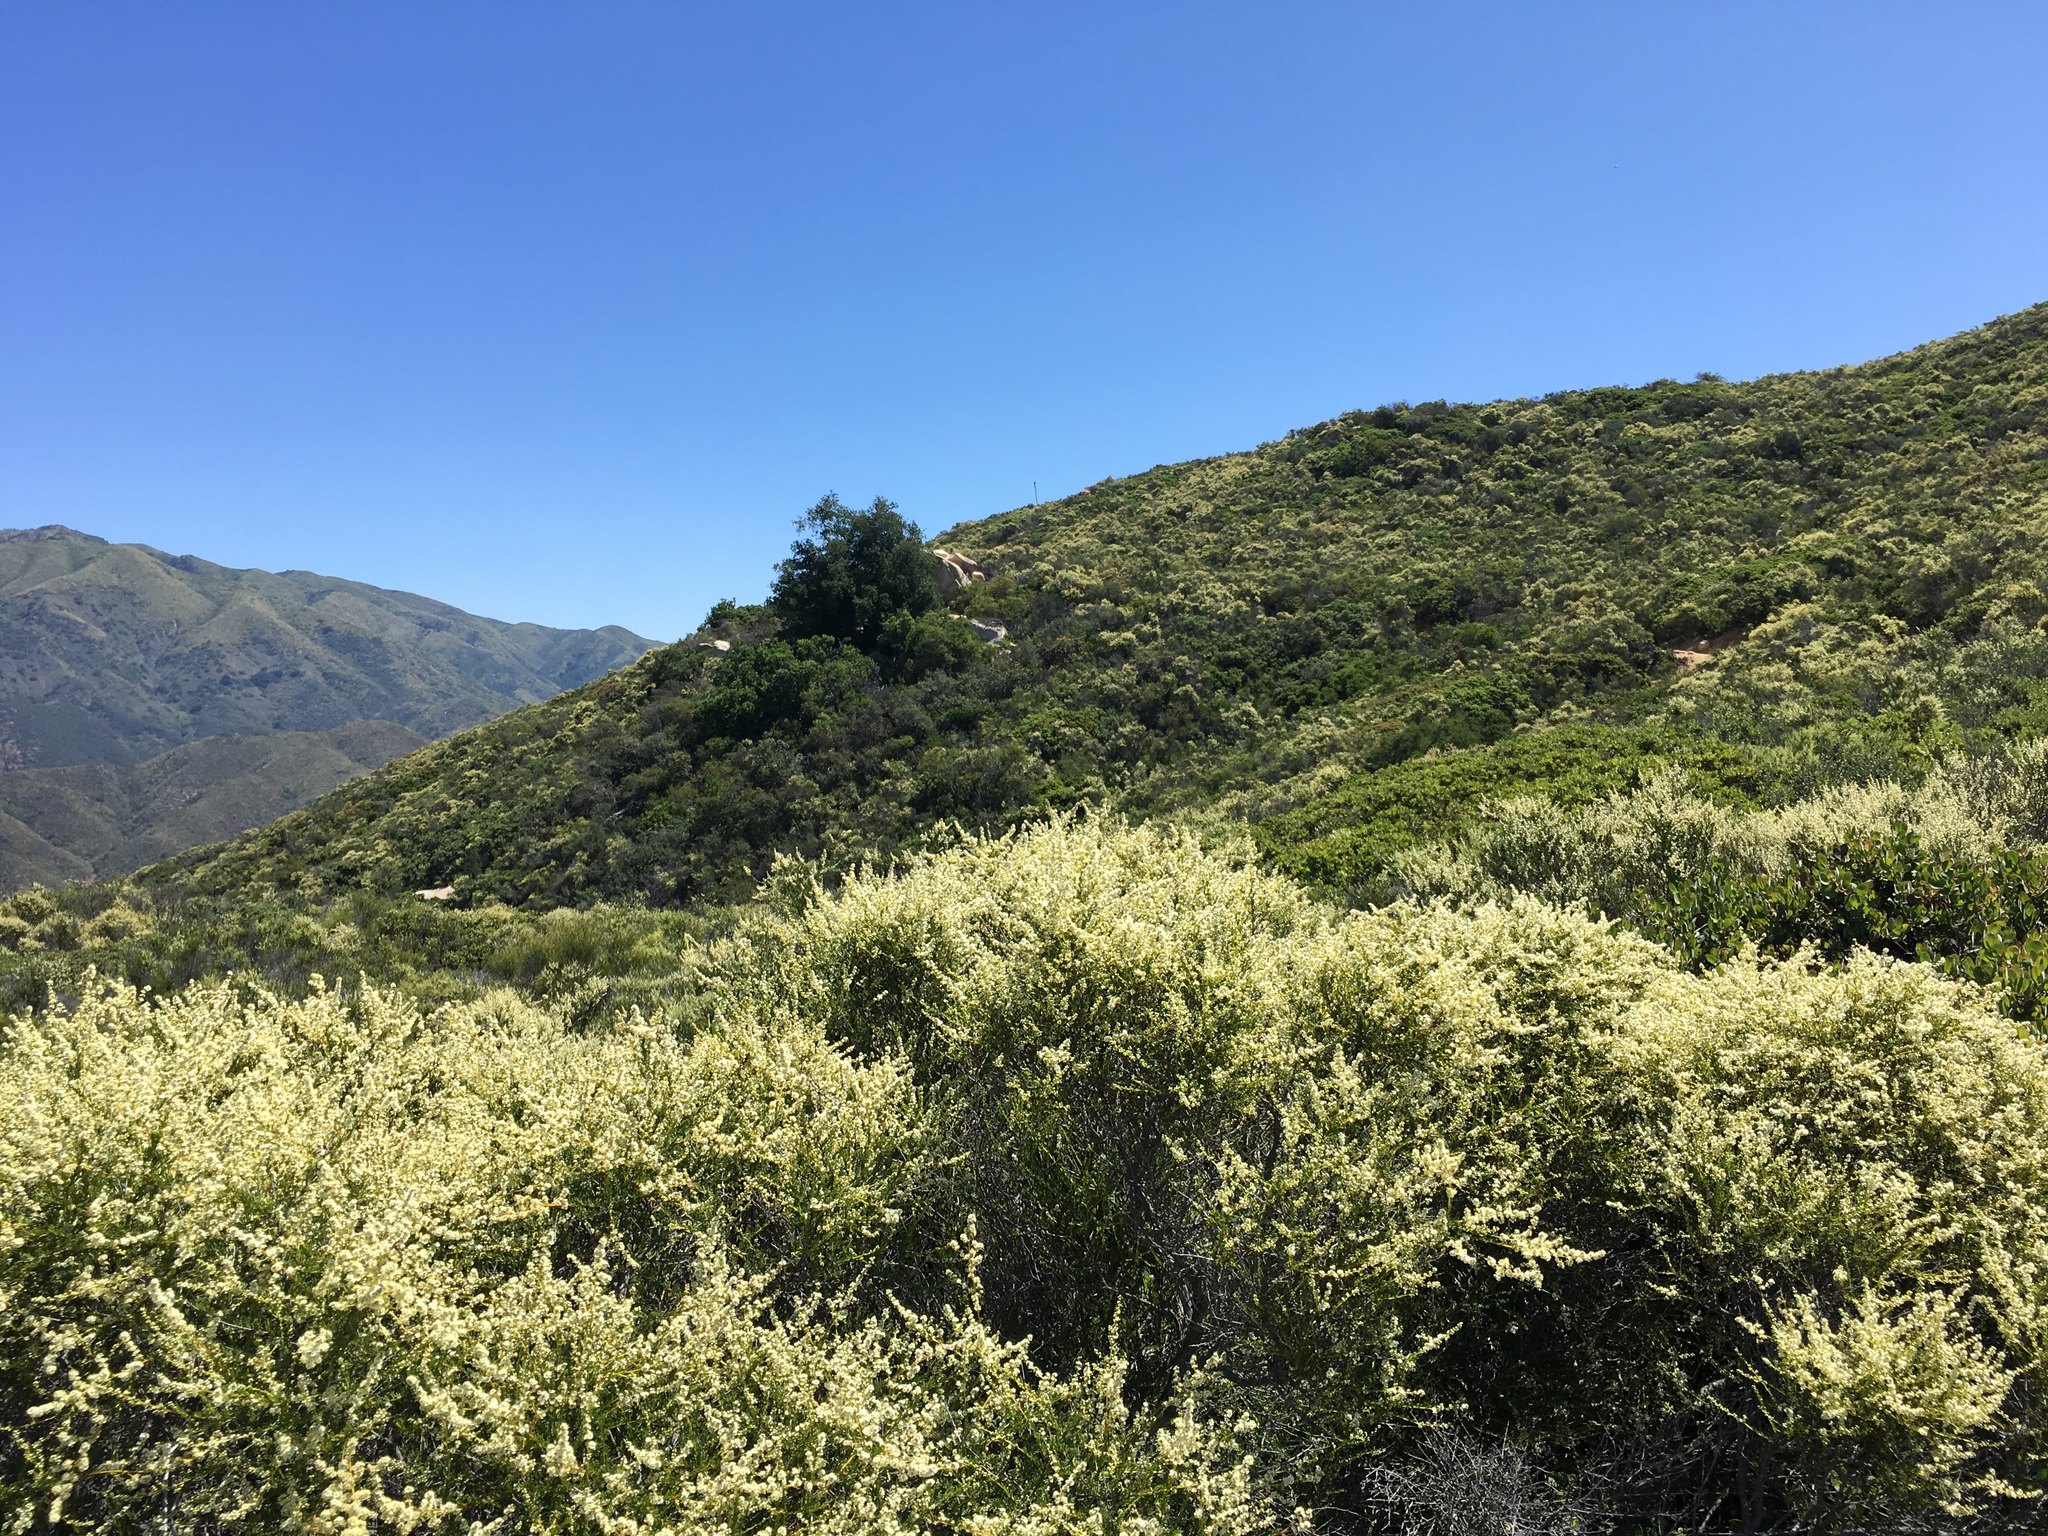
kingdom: Plantae
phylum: Tracheophyta
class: Magnoliopsida
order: Rosales
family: Rosaceae
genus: Adenostoma
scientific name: Adenostoma fasciculatum
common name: Chamise
